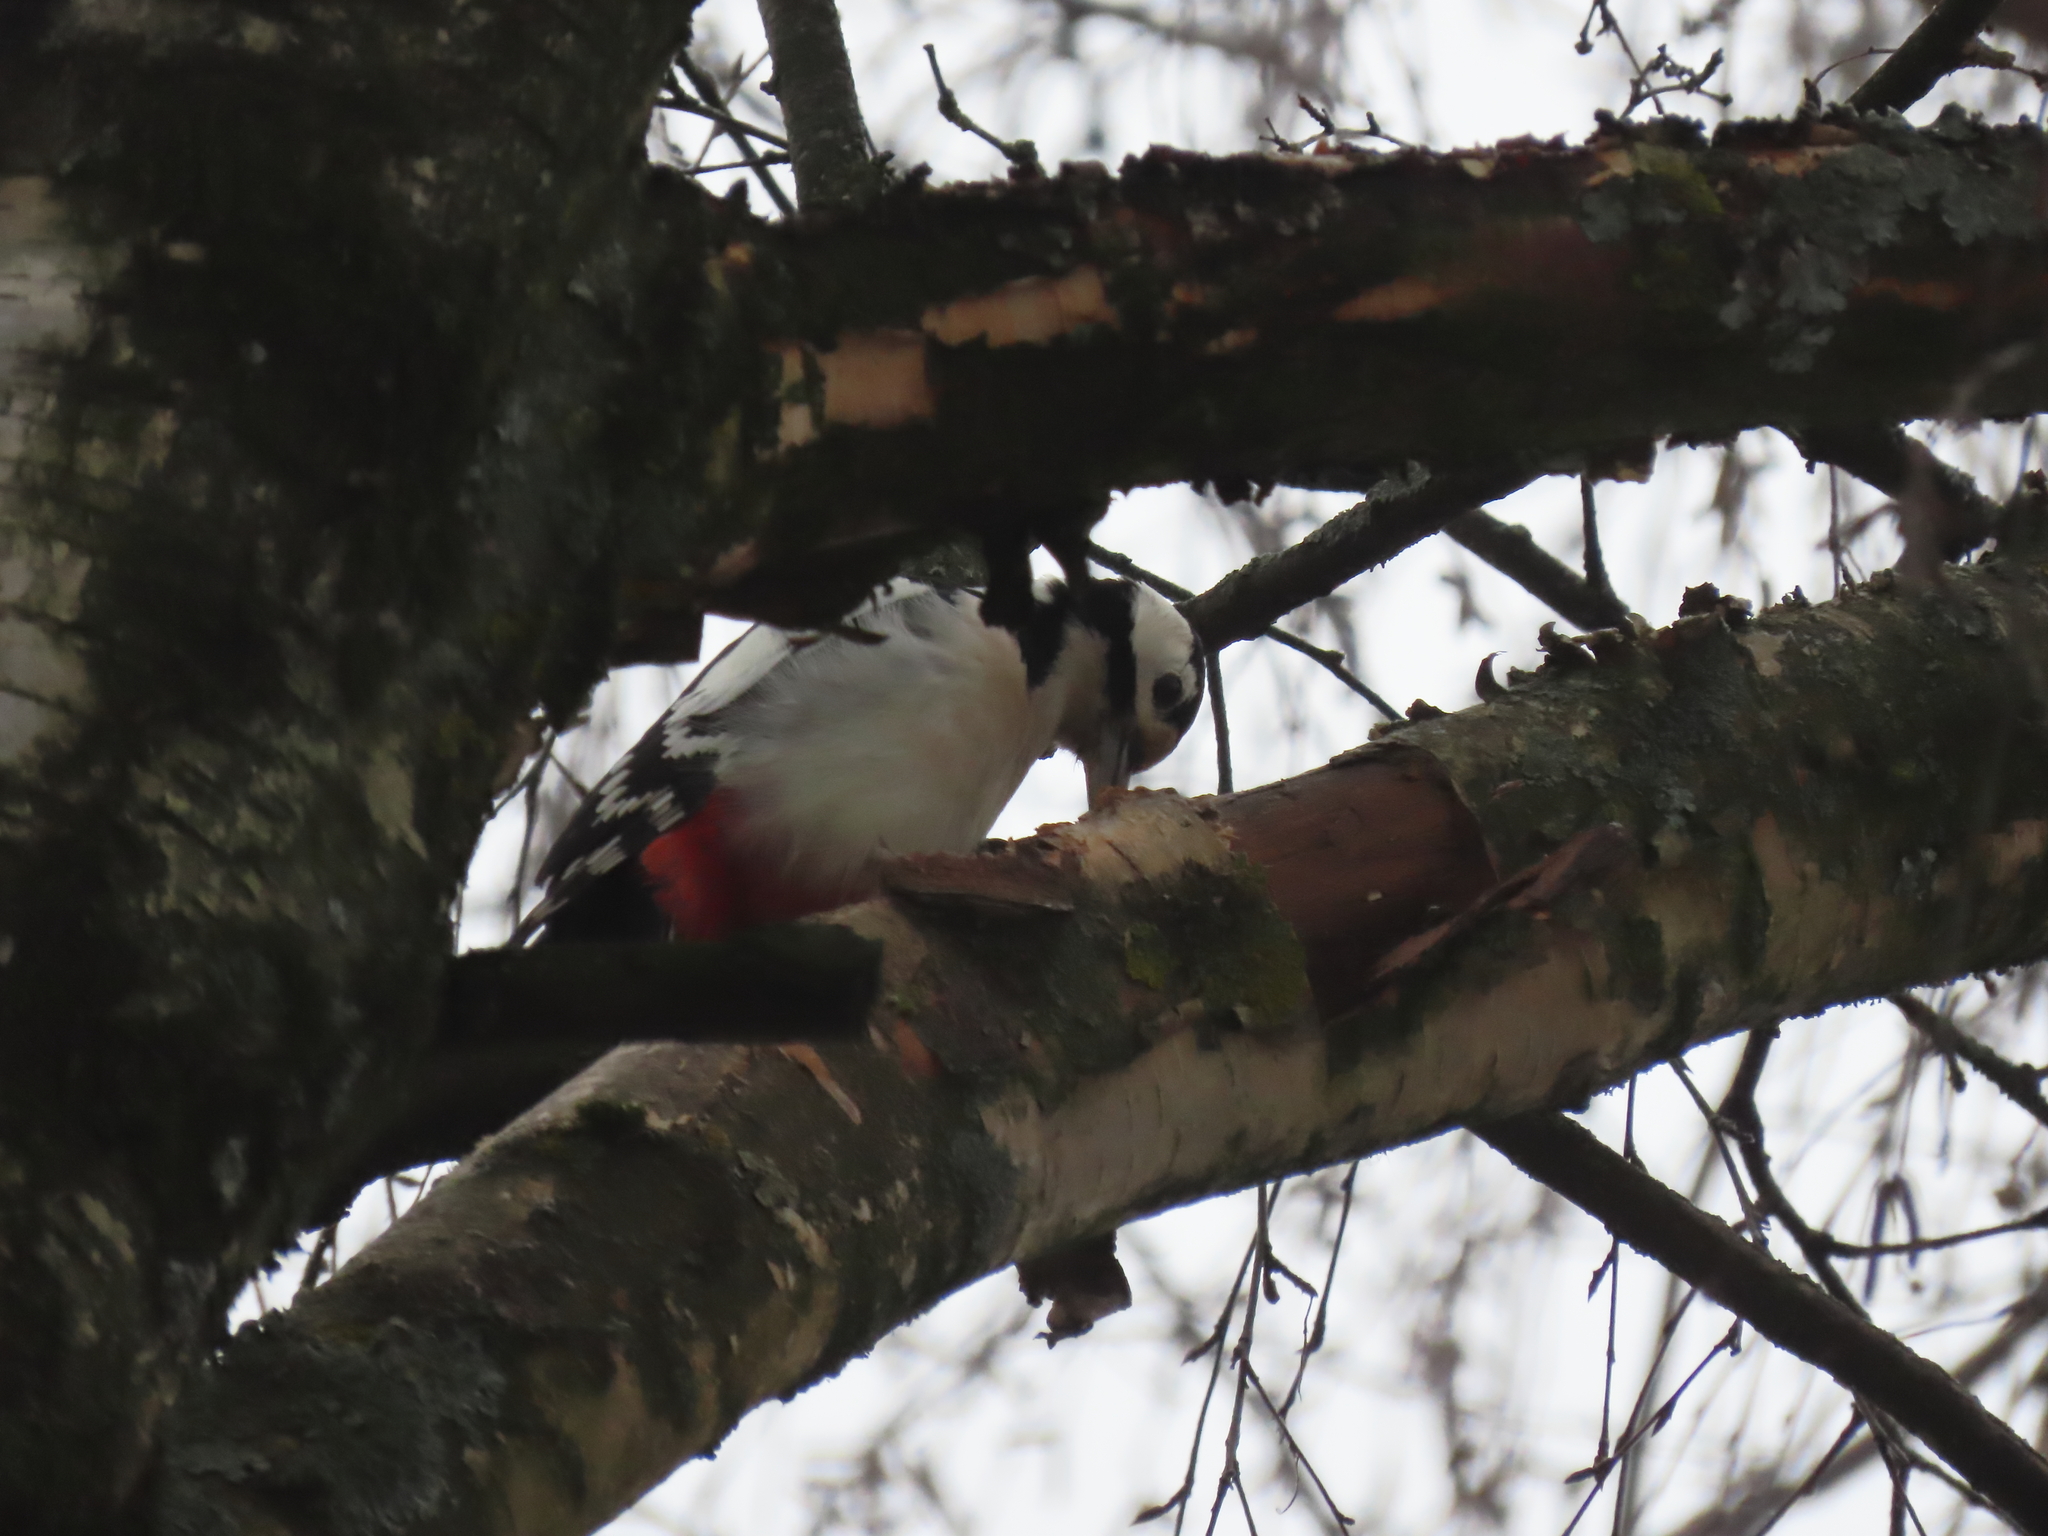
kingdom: Animalia
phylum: Chordata
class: Aves
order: Piciformes
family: Picidae
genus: Dendrocopos
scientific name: Dendrocopos major
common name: Great spotted woodpecker
